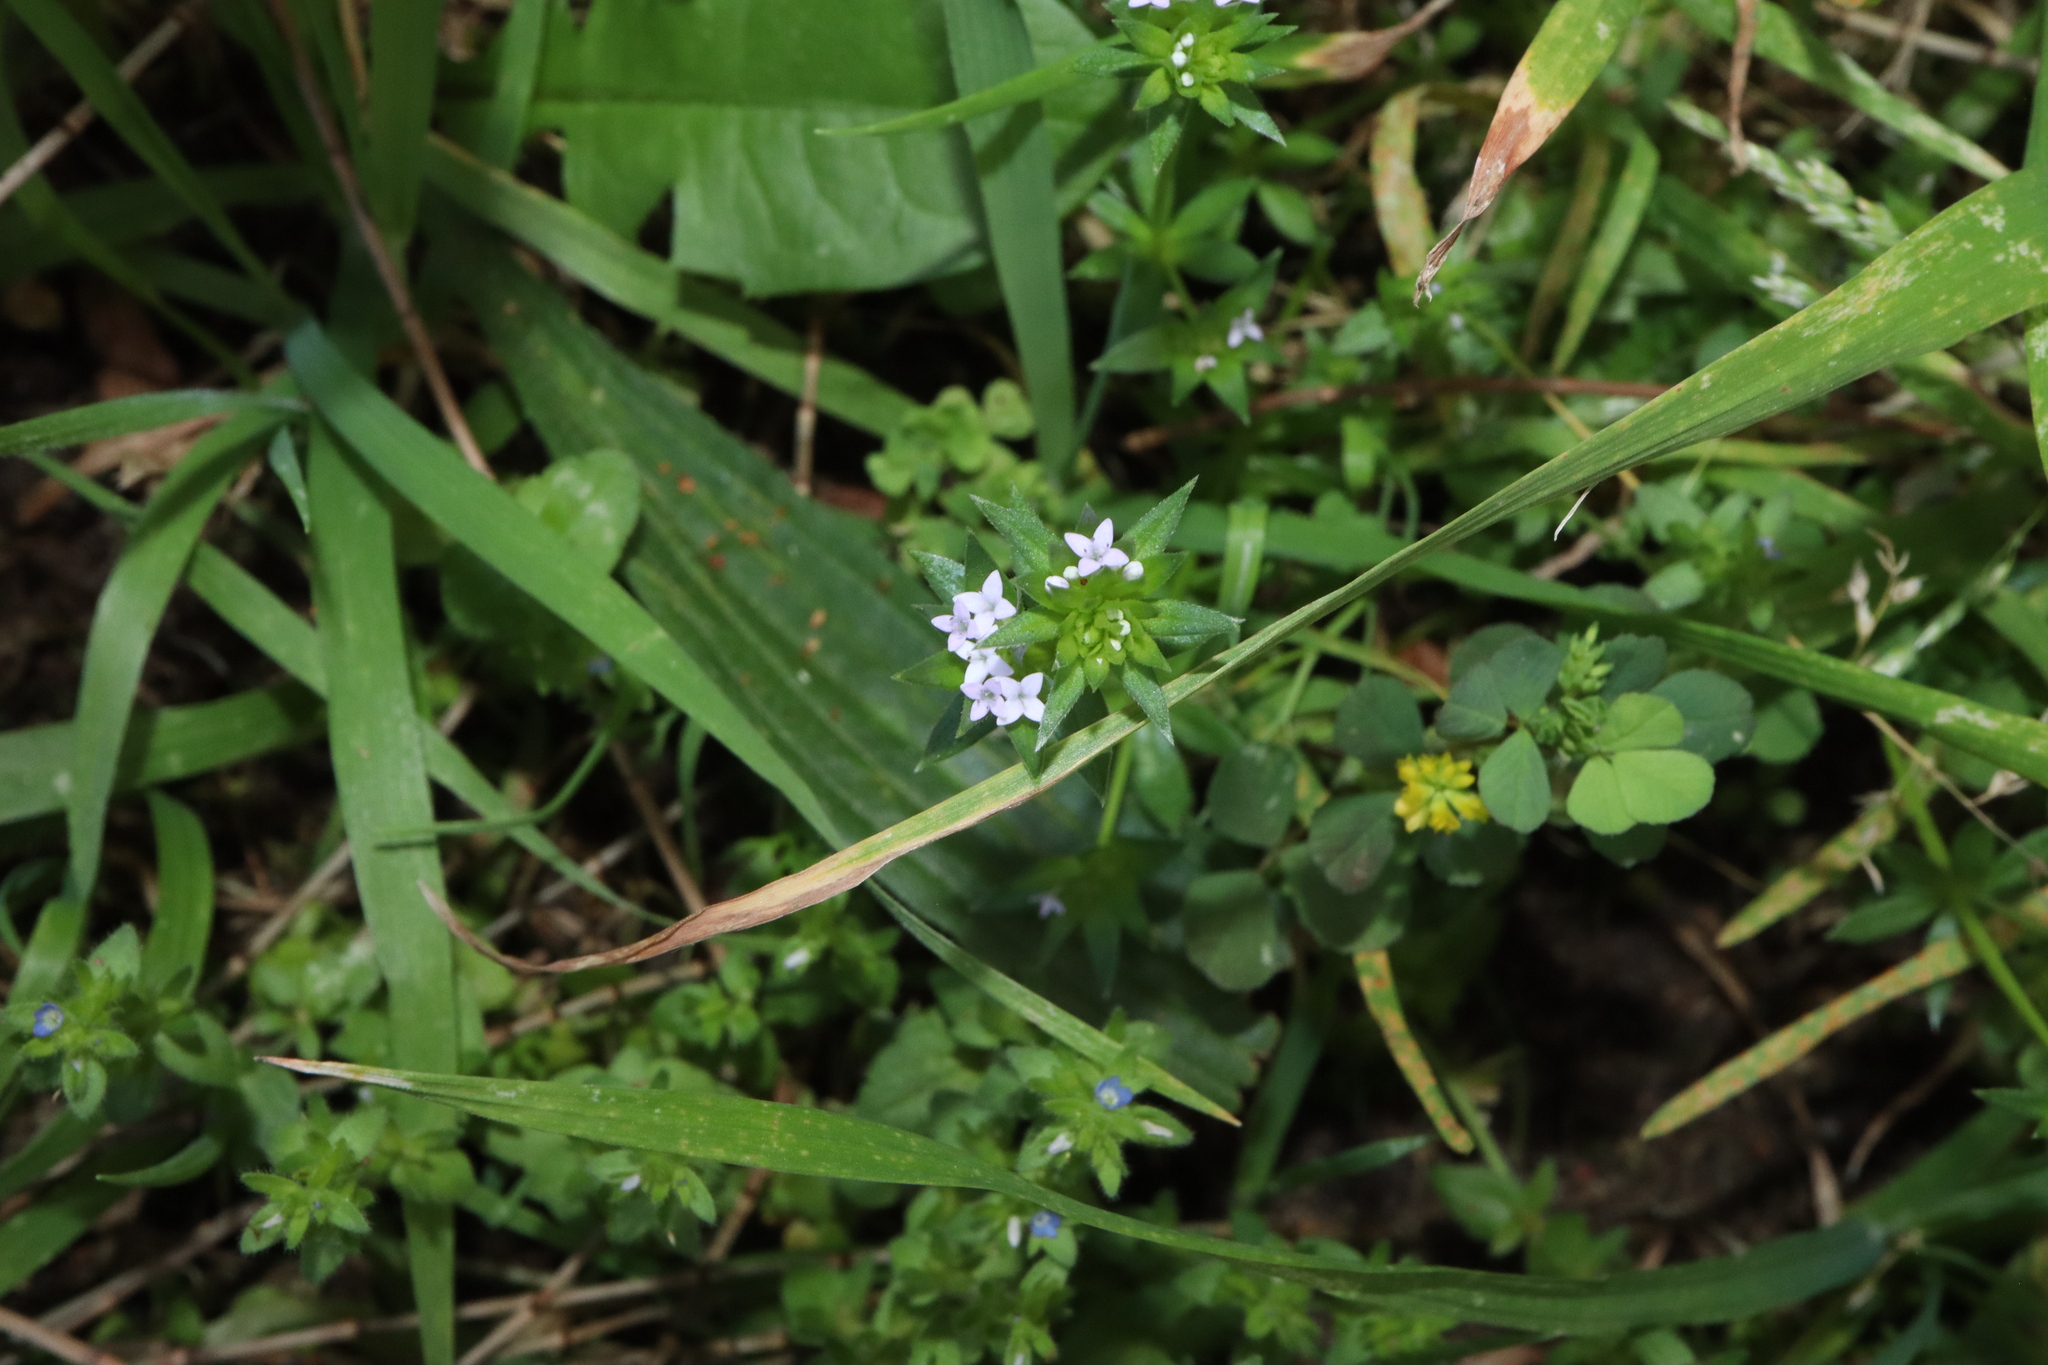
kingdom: Plantae
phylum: Tracheophyta
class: Magnoliopsida
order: Gentianales
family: Rubiaceae
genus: Sherardia
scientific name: Sherardia arvensis
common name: Field madder
